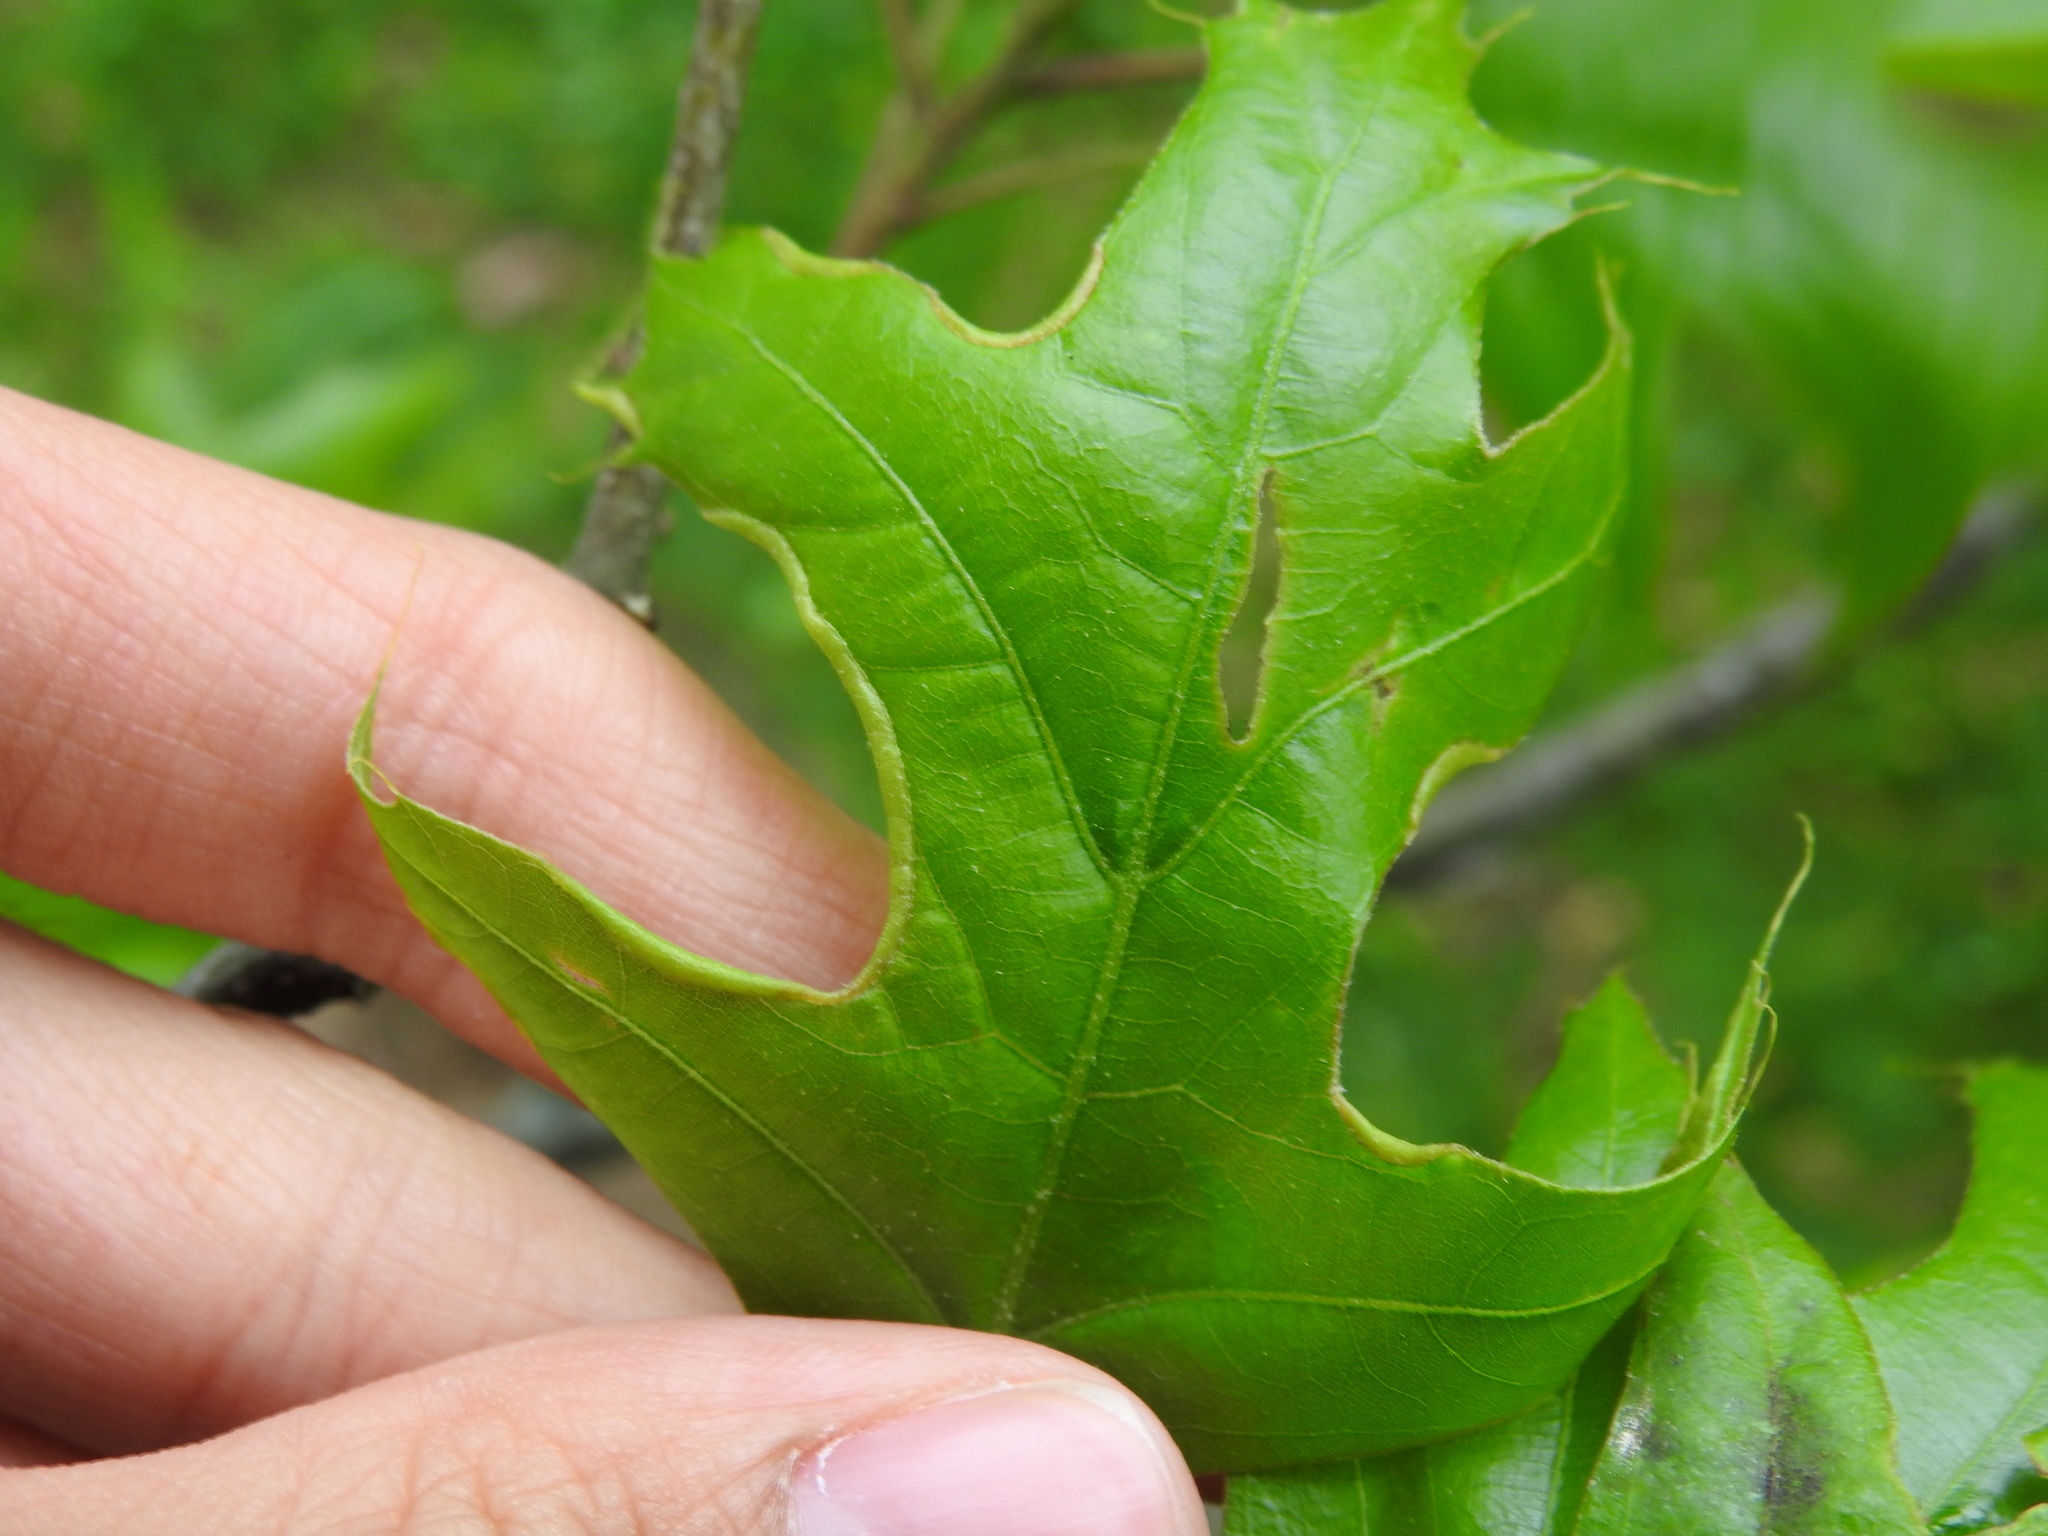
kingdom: Animalia
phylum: Arthropoda
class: Insecta
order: Diptera
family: Cecidomyiidae
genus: Macrodiplosis
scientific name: Macrodiplosis erubescens
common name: Marginal leaf fold gall midge
